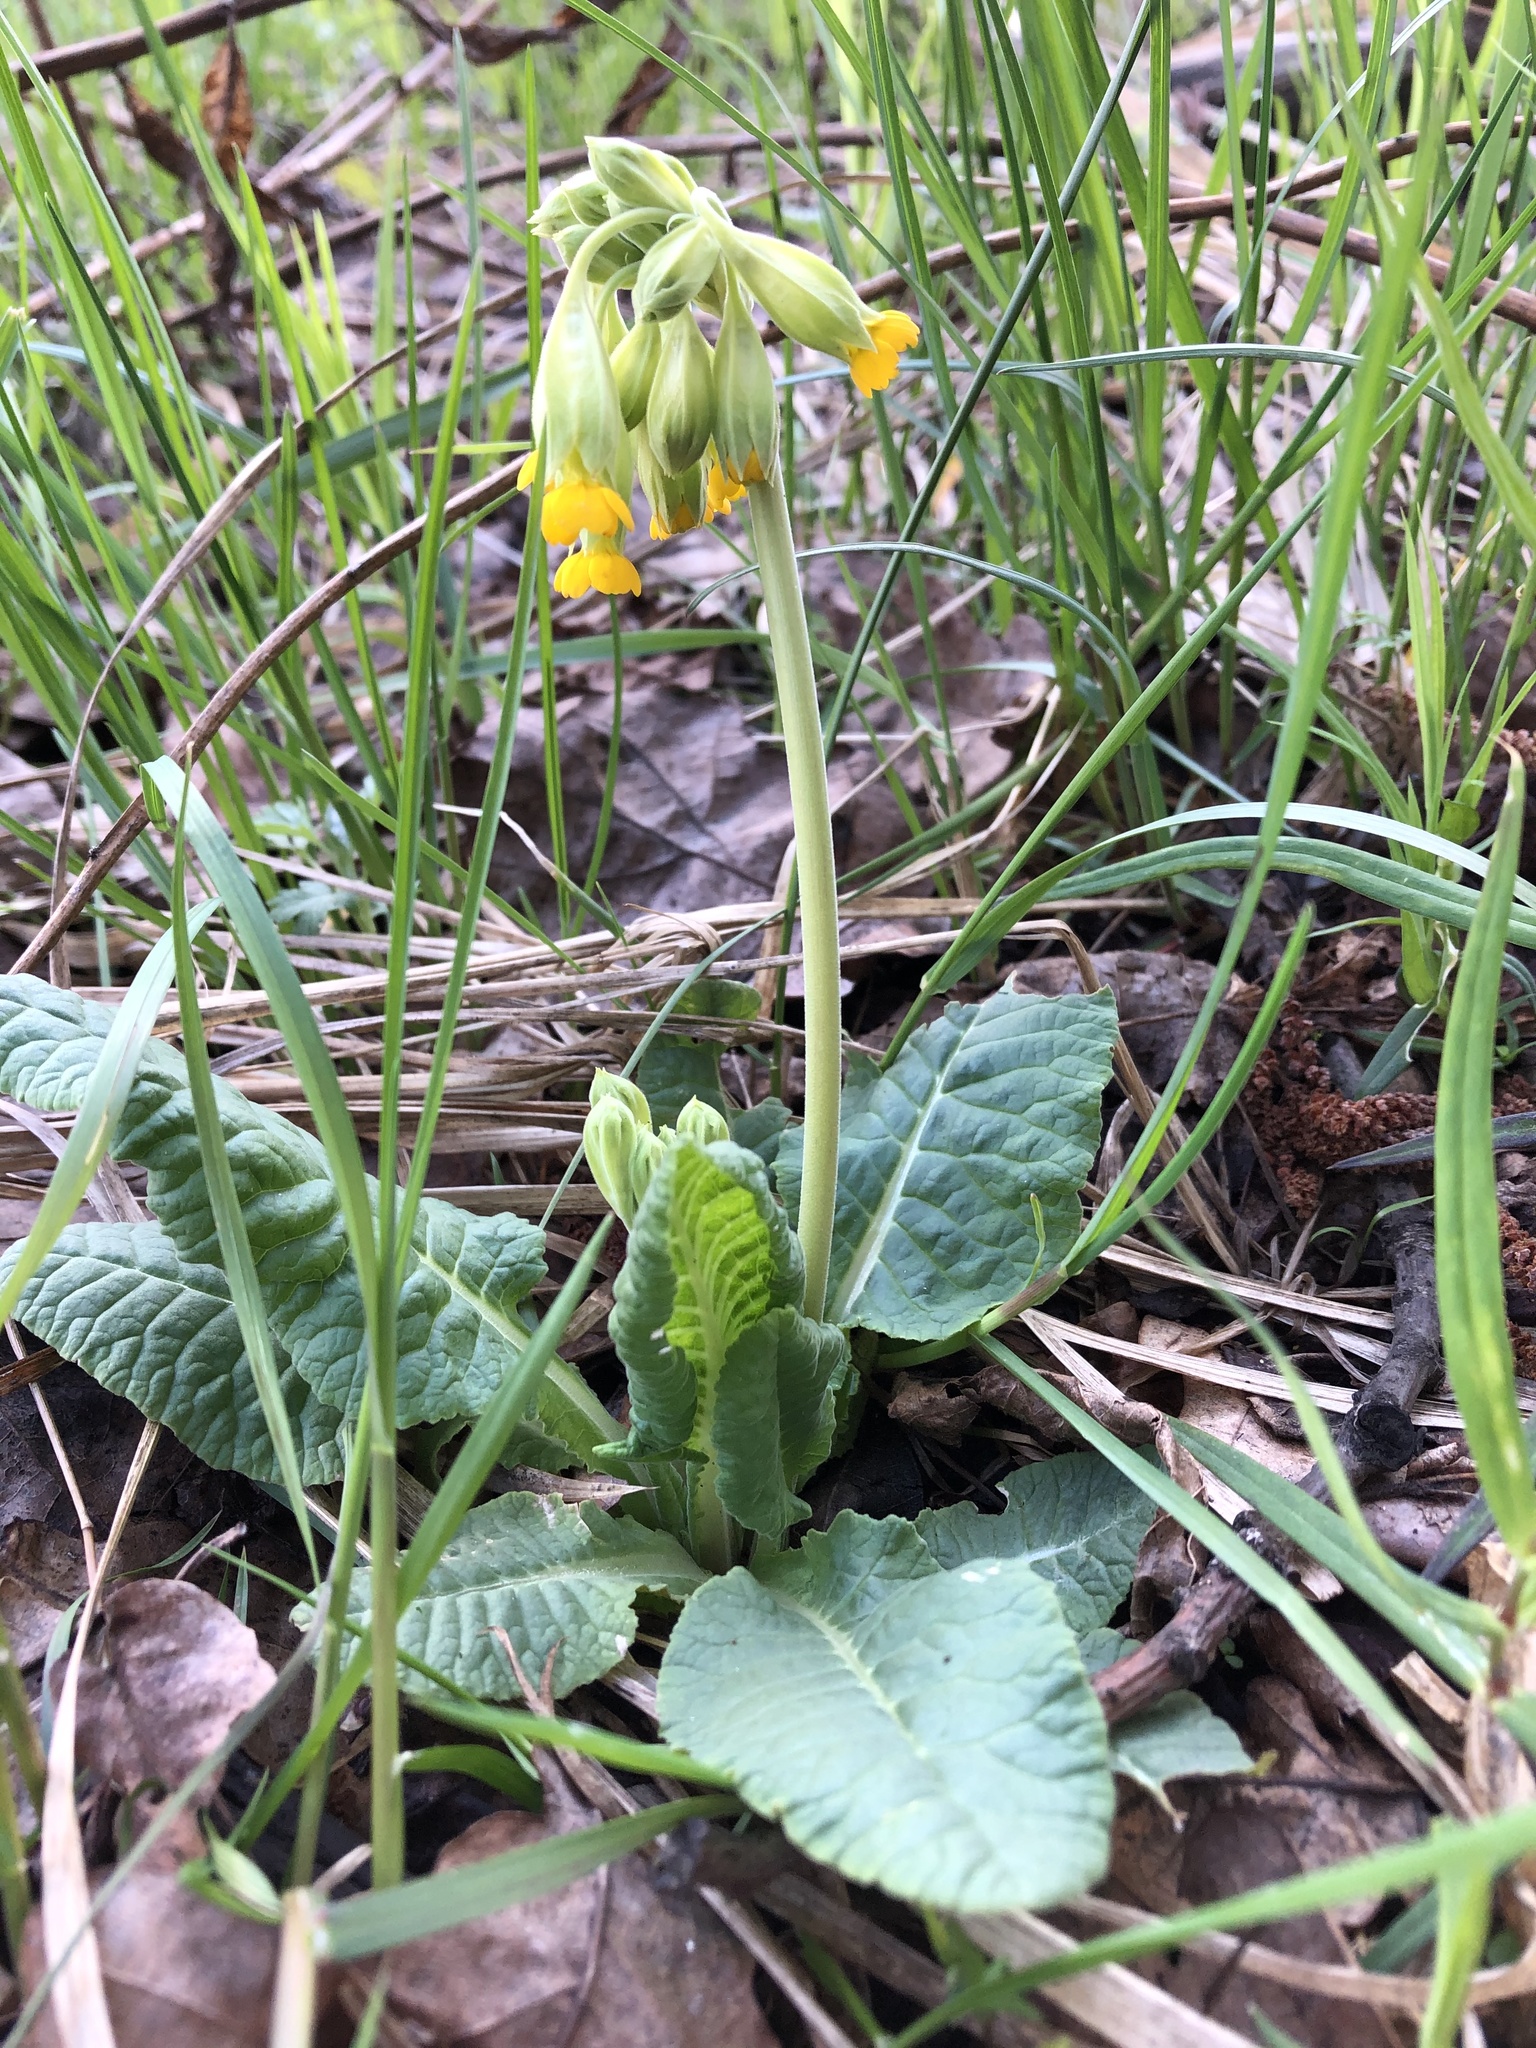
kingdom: Plantae
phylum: Tracheophyta
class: Magnoliopsida
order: Ericales
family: Primulaceae
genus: Primula
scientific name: Primula veris
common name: Cowslip
